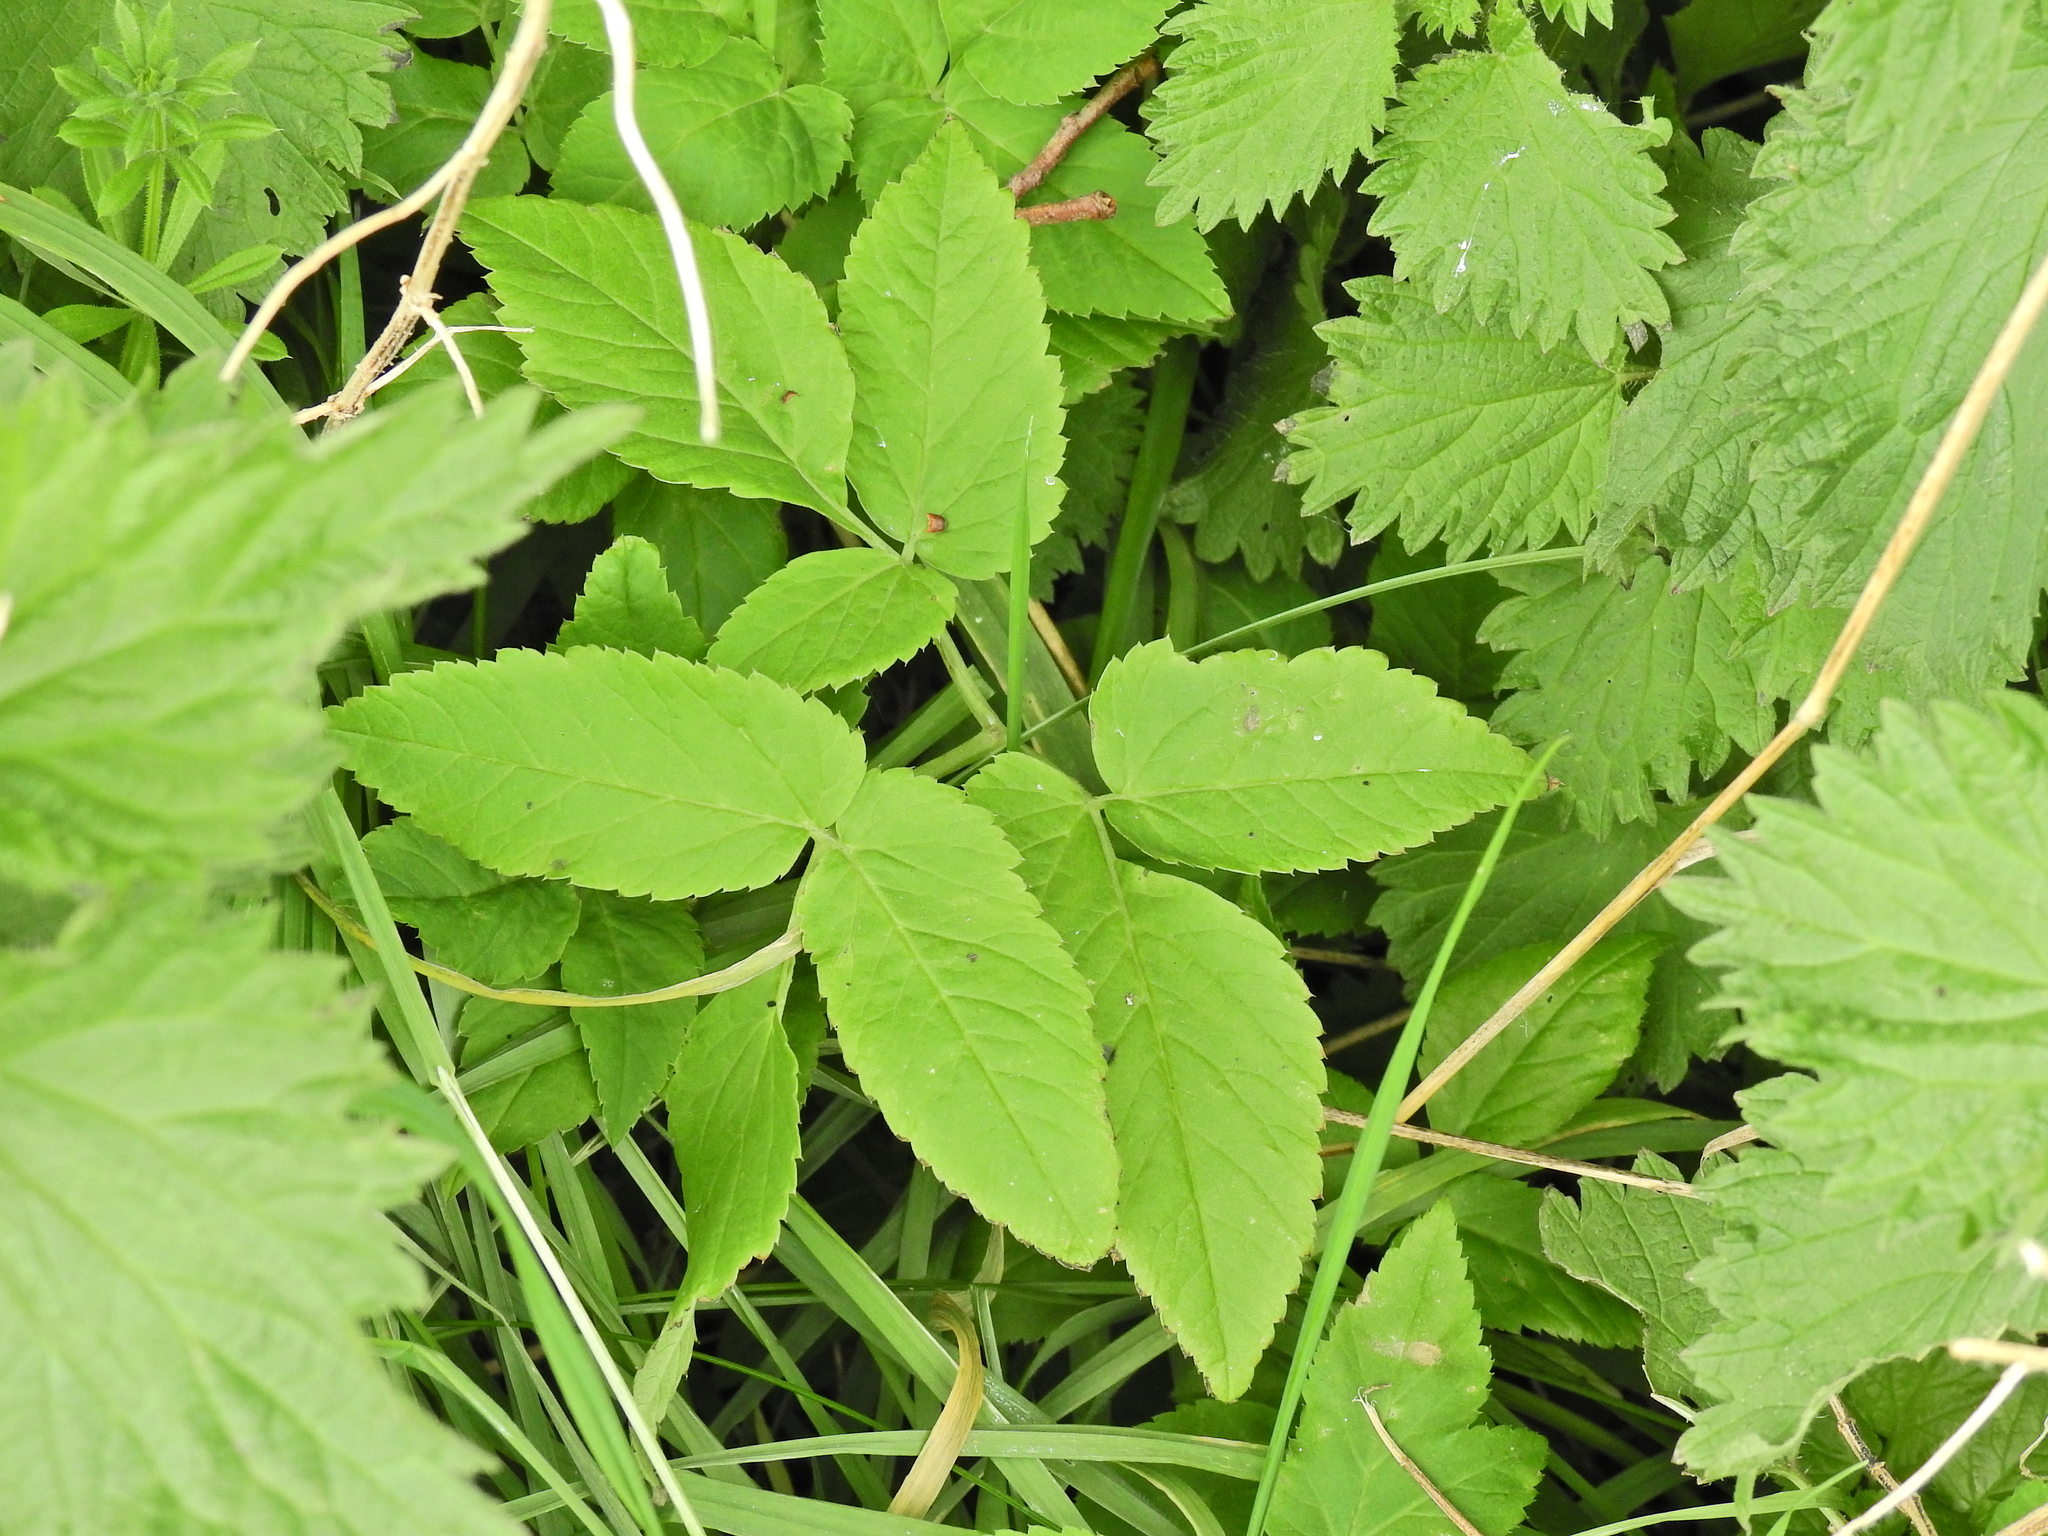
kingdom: Plantae
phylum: Tracheophyta
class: Magnoliopsida
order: Apiales
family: Apiaceae
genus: Aegopodium
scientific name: Aegopodium podagraria
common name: Ground-elder
